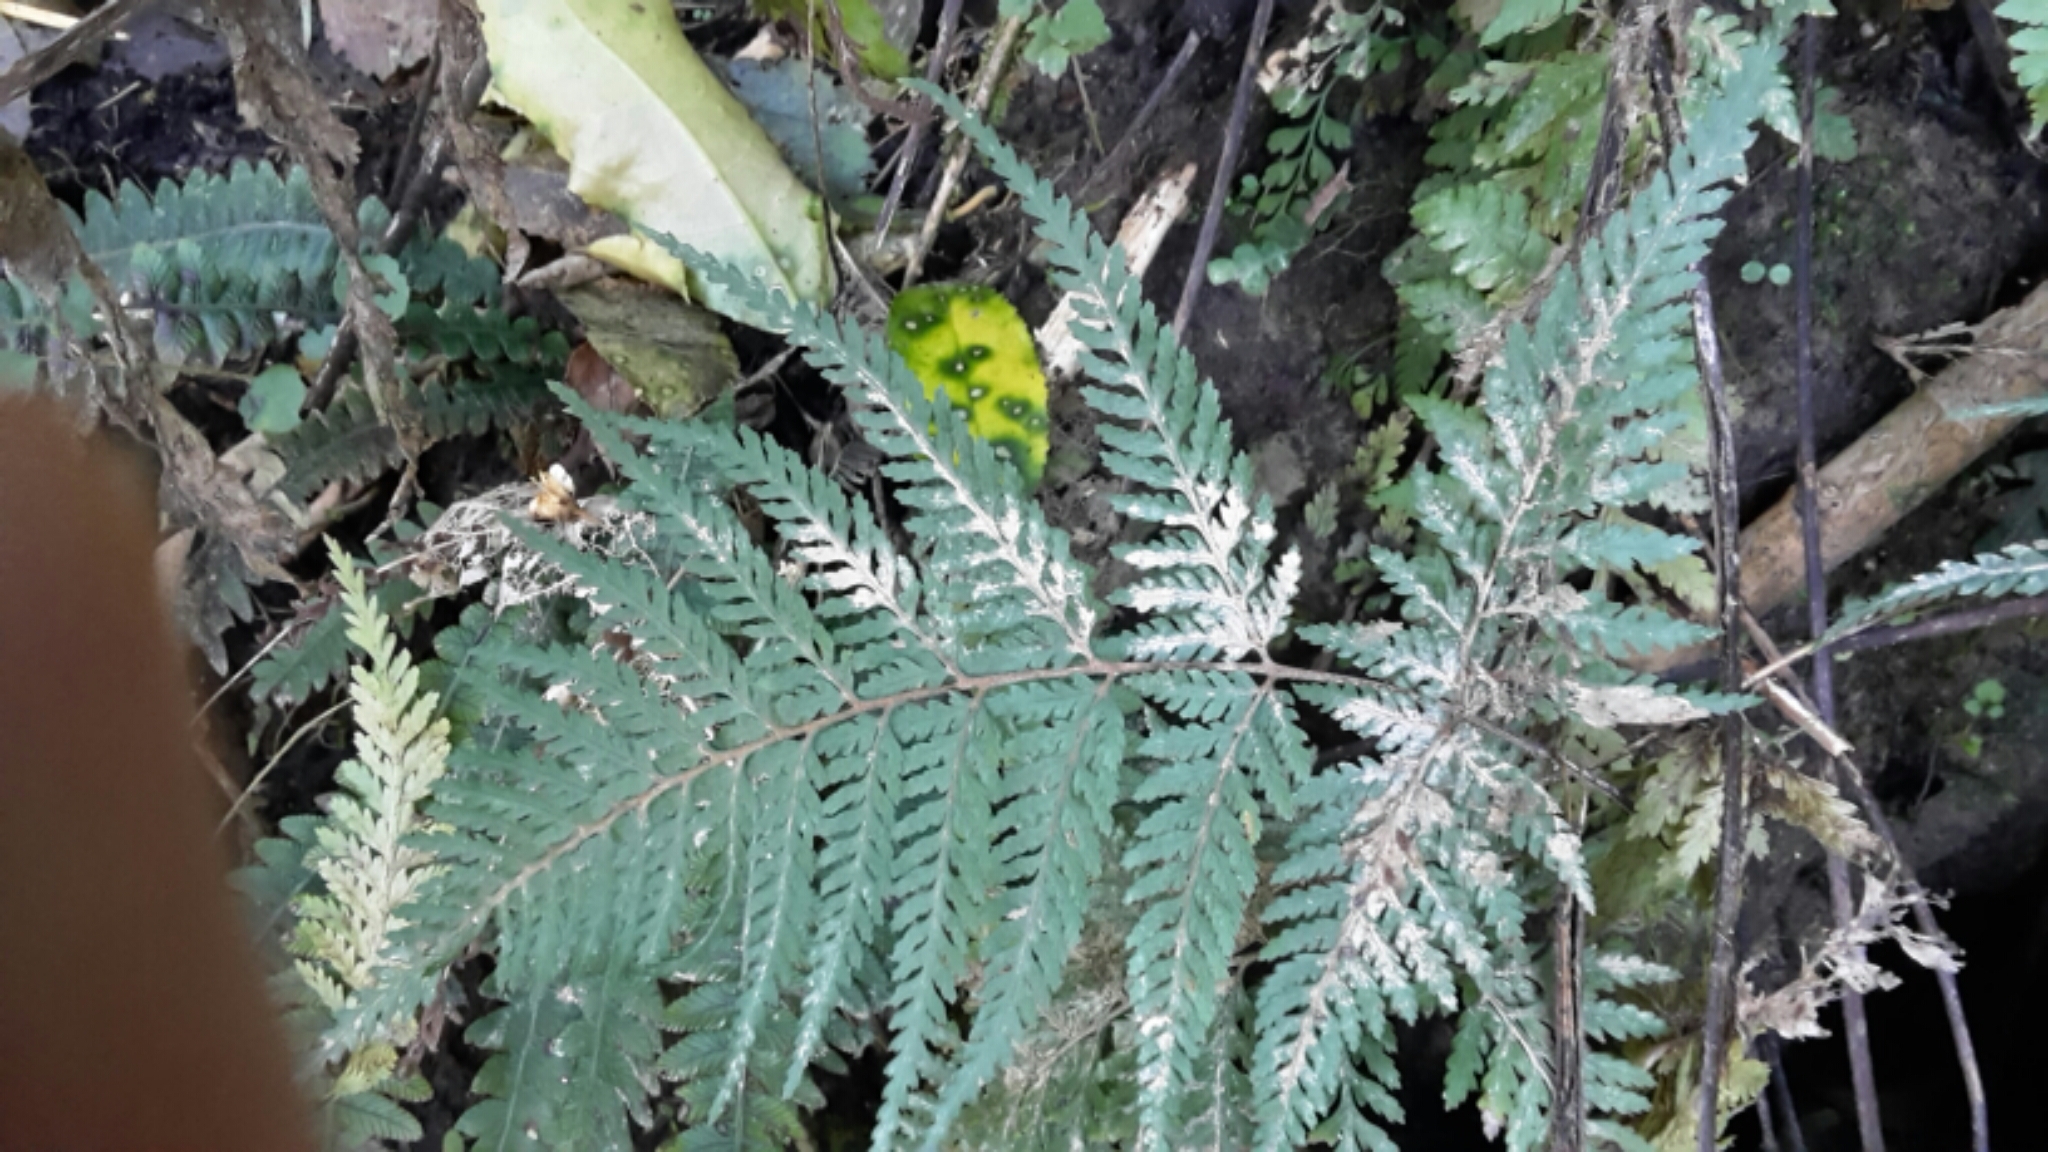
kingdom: Plantae
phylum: Tracheophyta
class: Polypodiopsida
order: Polypodiales
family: Dryopteridaceae
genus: Parapolystichum
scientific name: Parapolystichum glabellum
